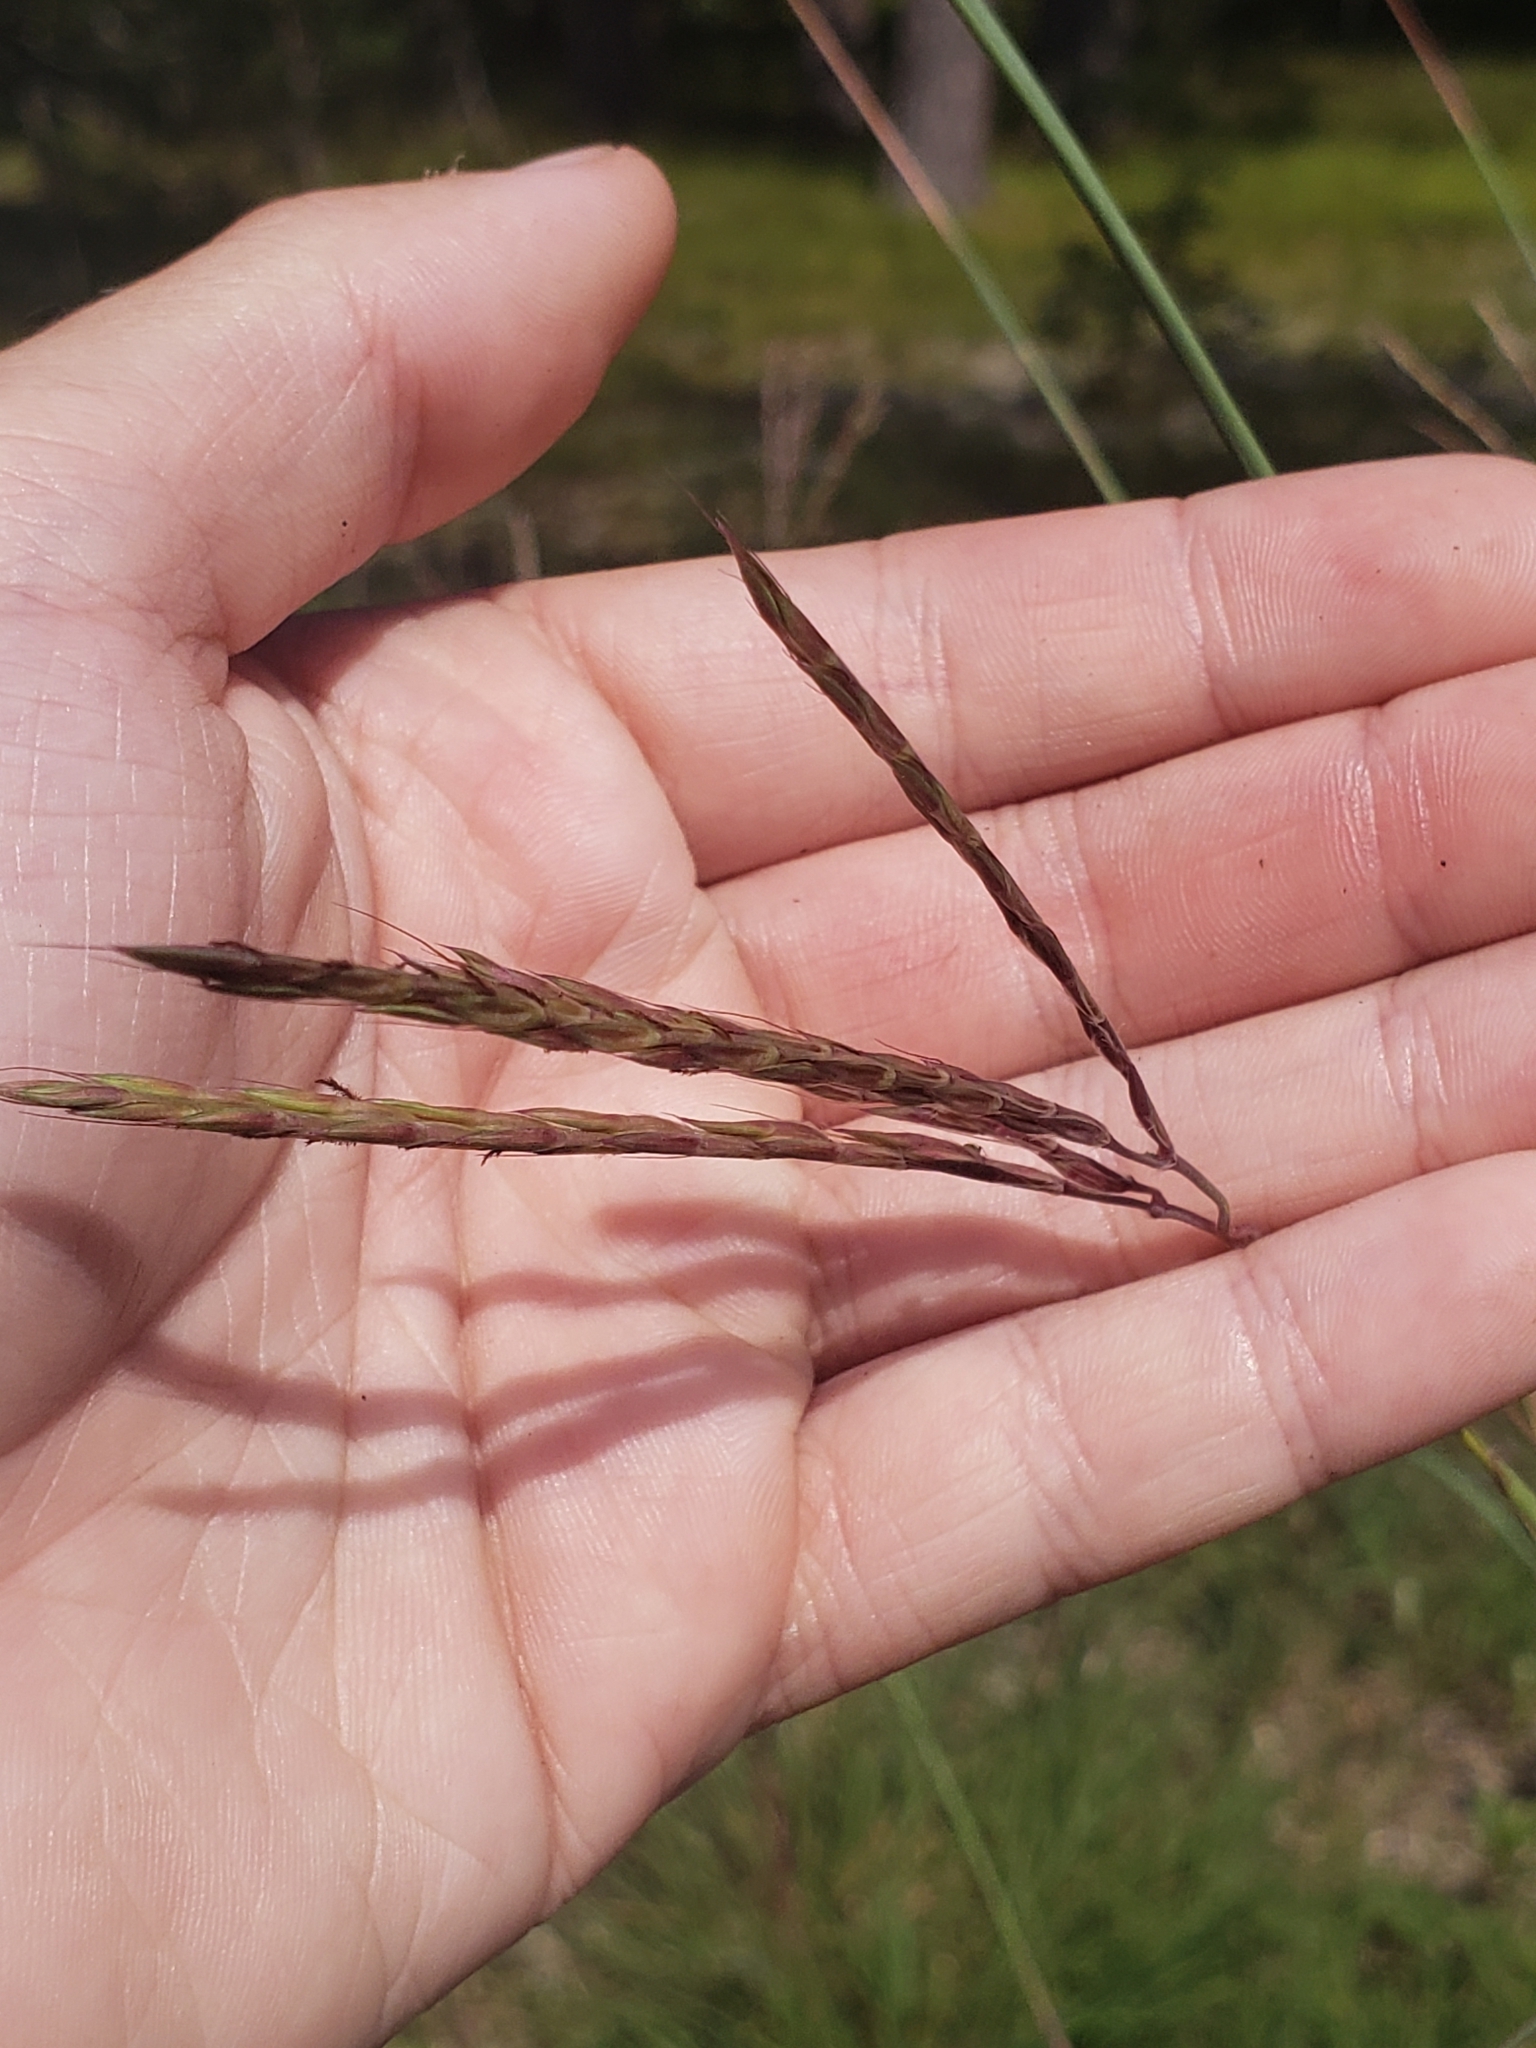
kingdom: Plantae
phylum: Tracheophyta
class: Liliopsida
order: Poales
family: Poaceae
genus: Andropogon
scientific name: Andropogon gerardi
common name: Big bluestem
